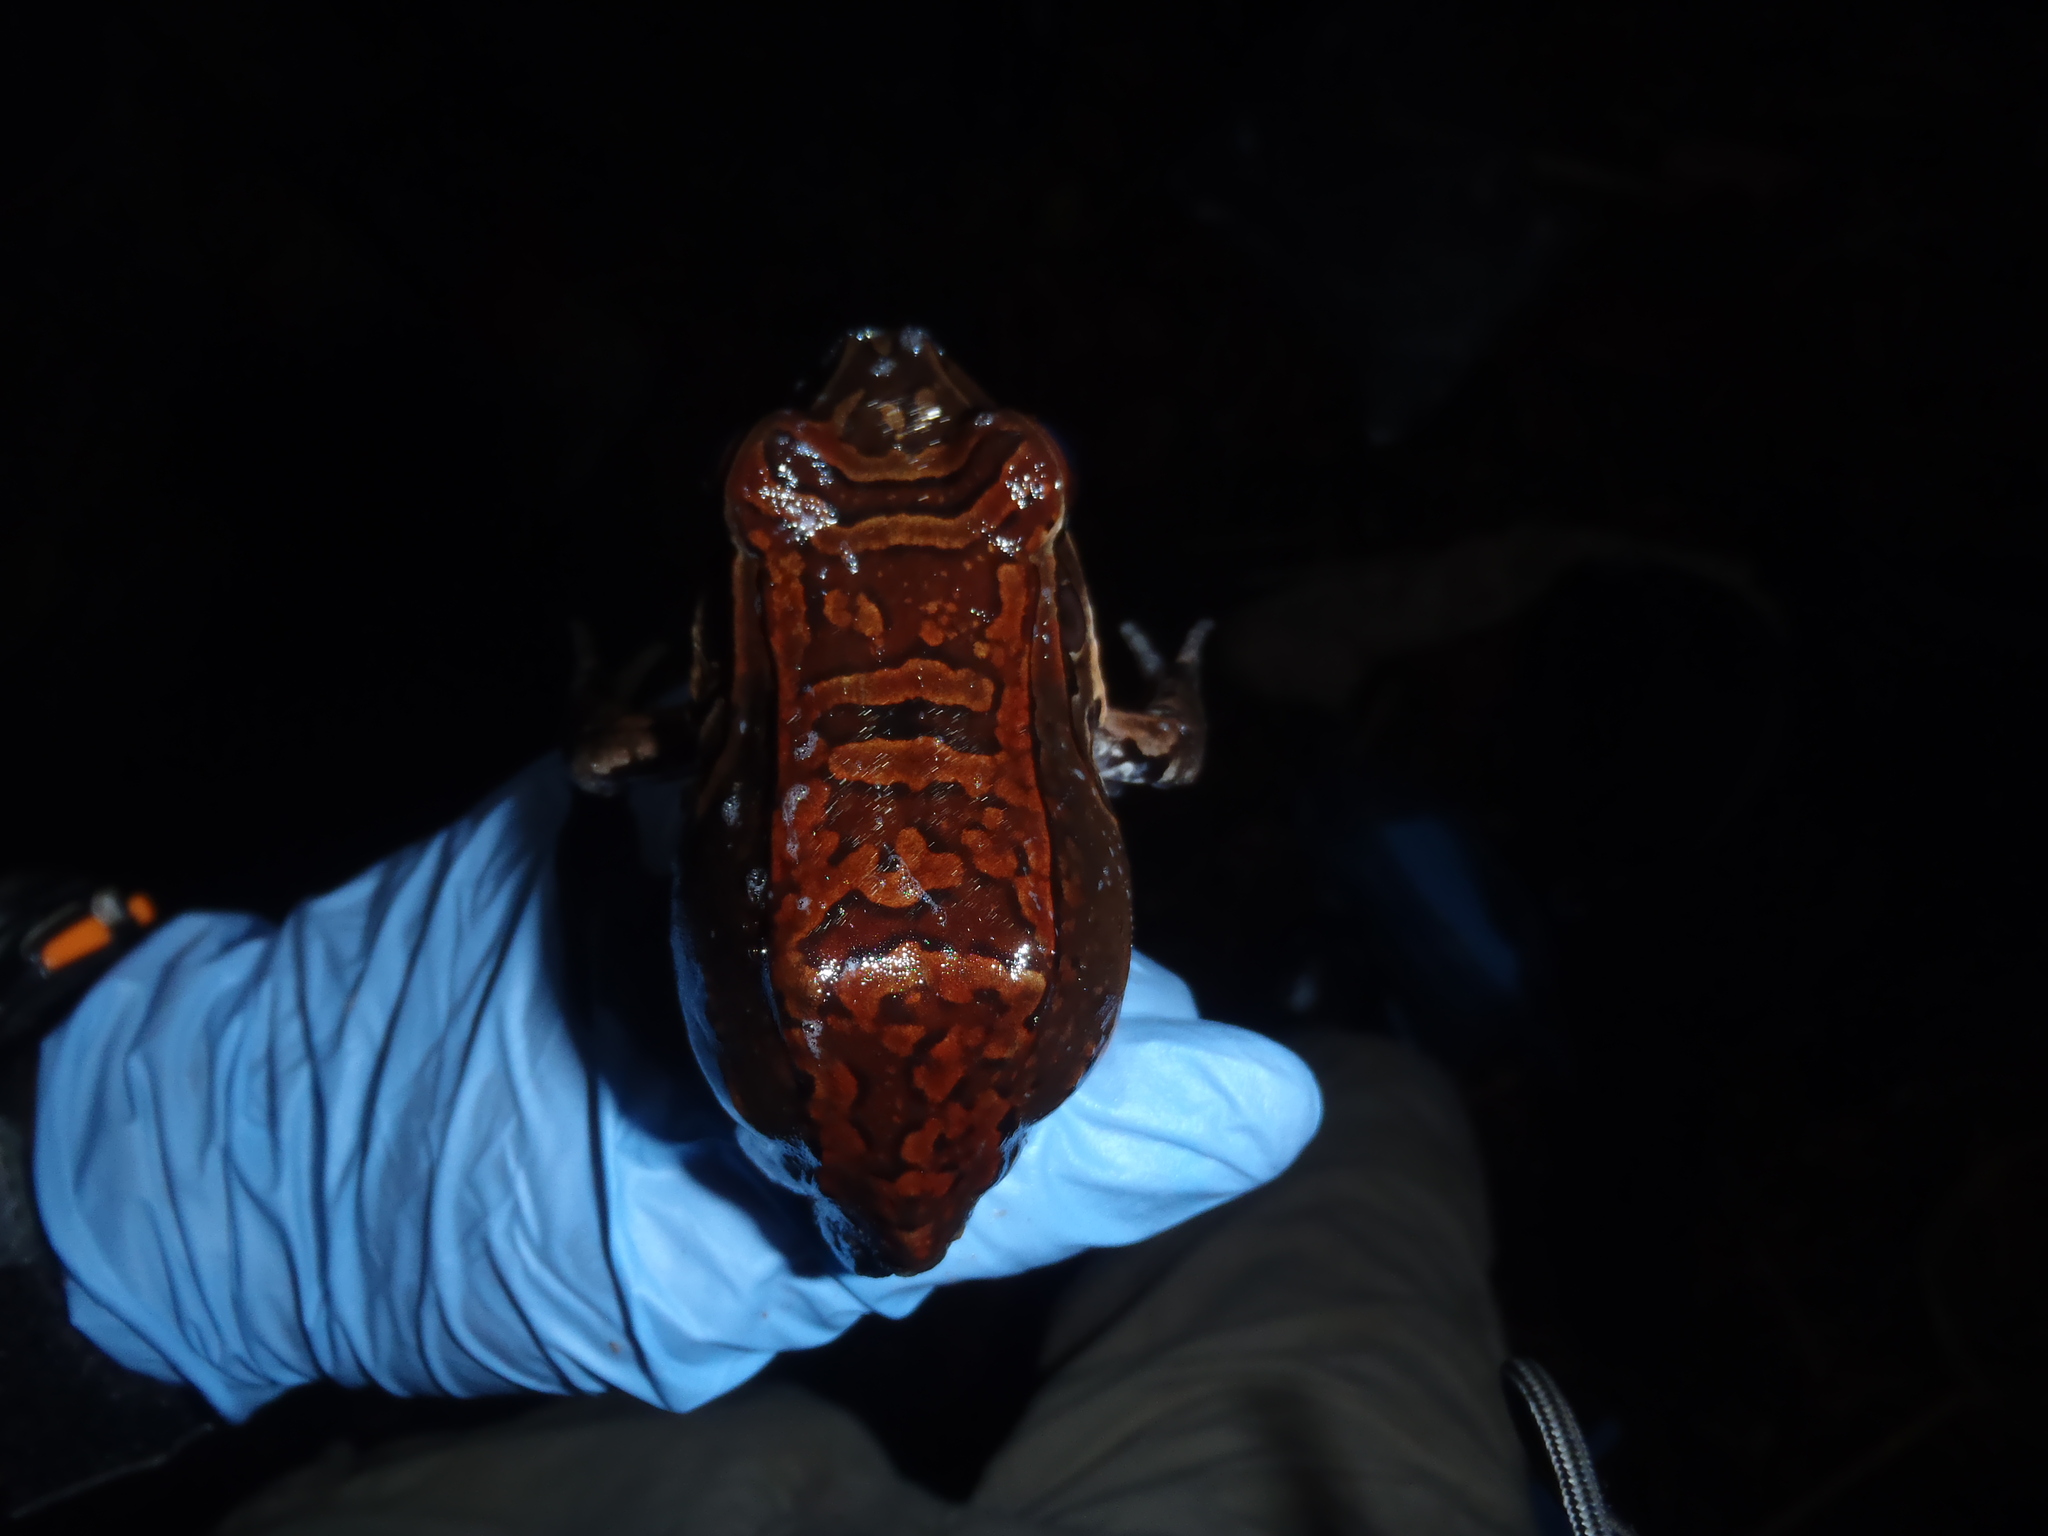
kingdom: Animalia
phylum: Chordata
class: Amphibia
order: Anura
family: Leptodactylidae
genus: Leptodactylus
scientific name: Leptodactylus savagei
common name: Savage's thin-toed frog
